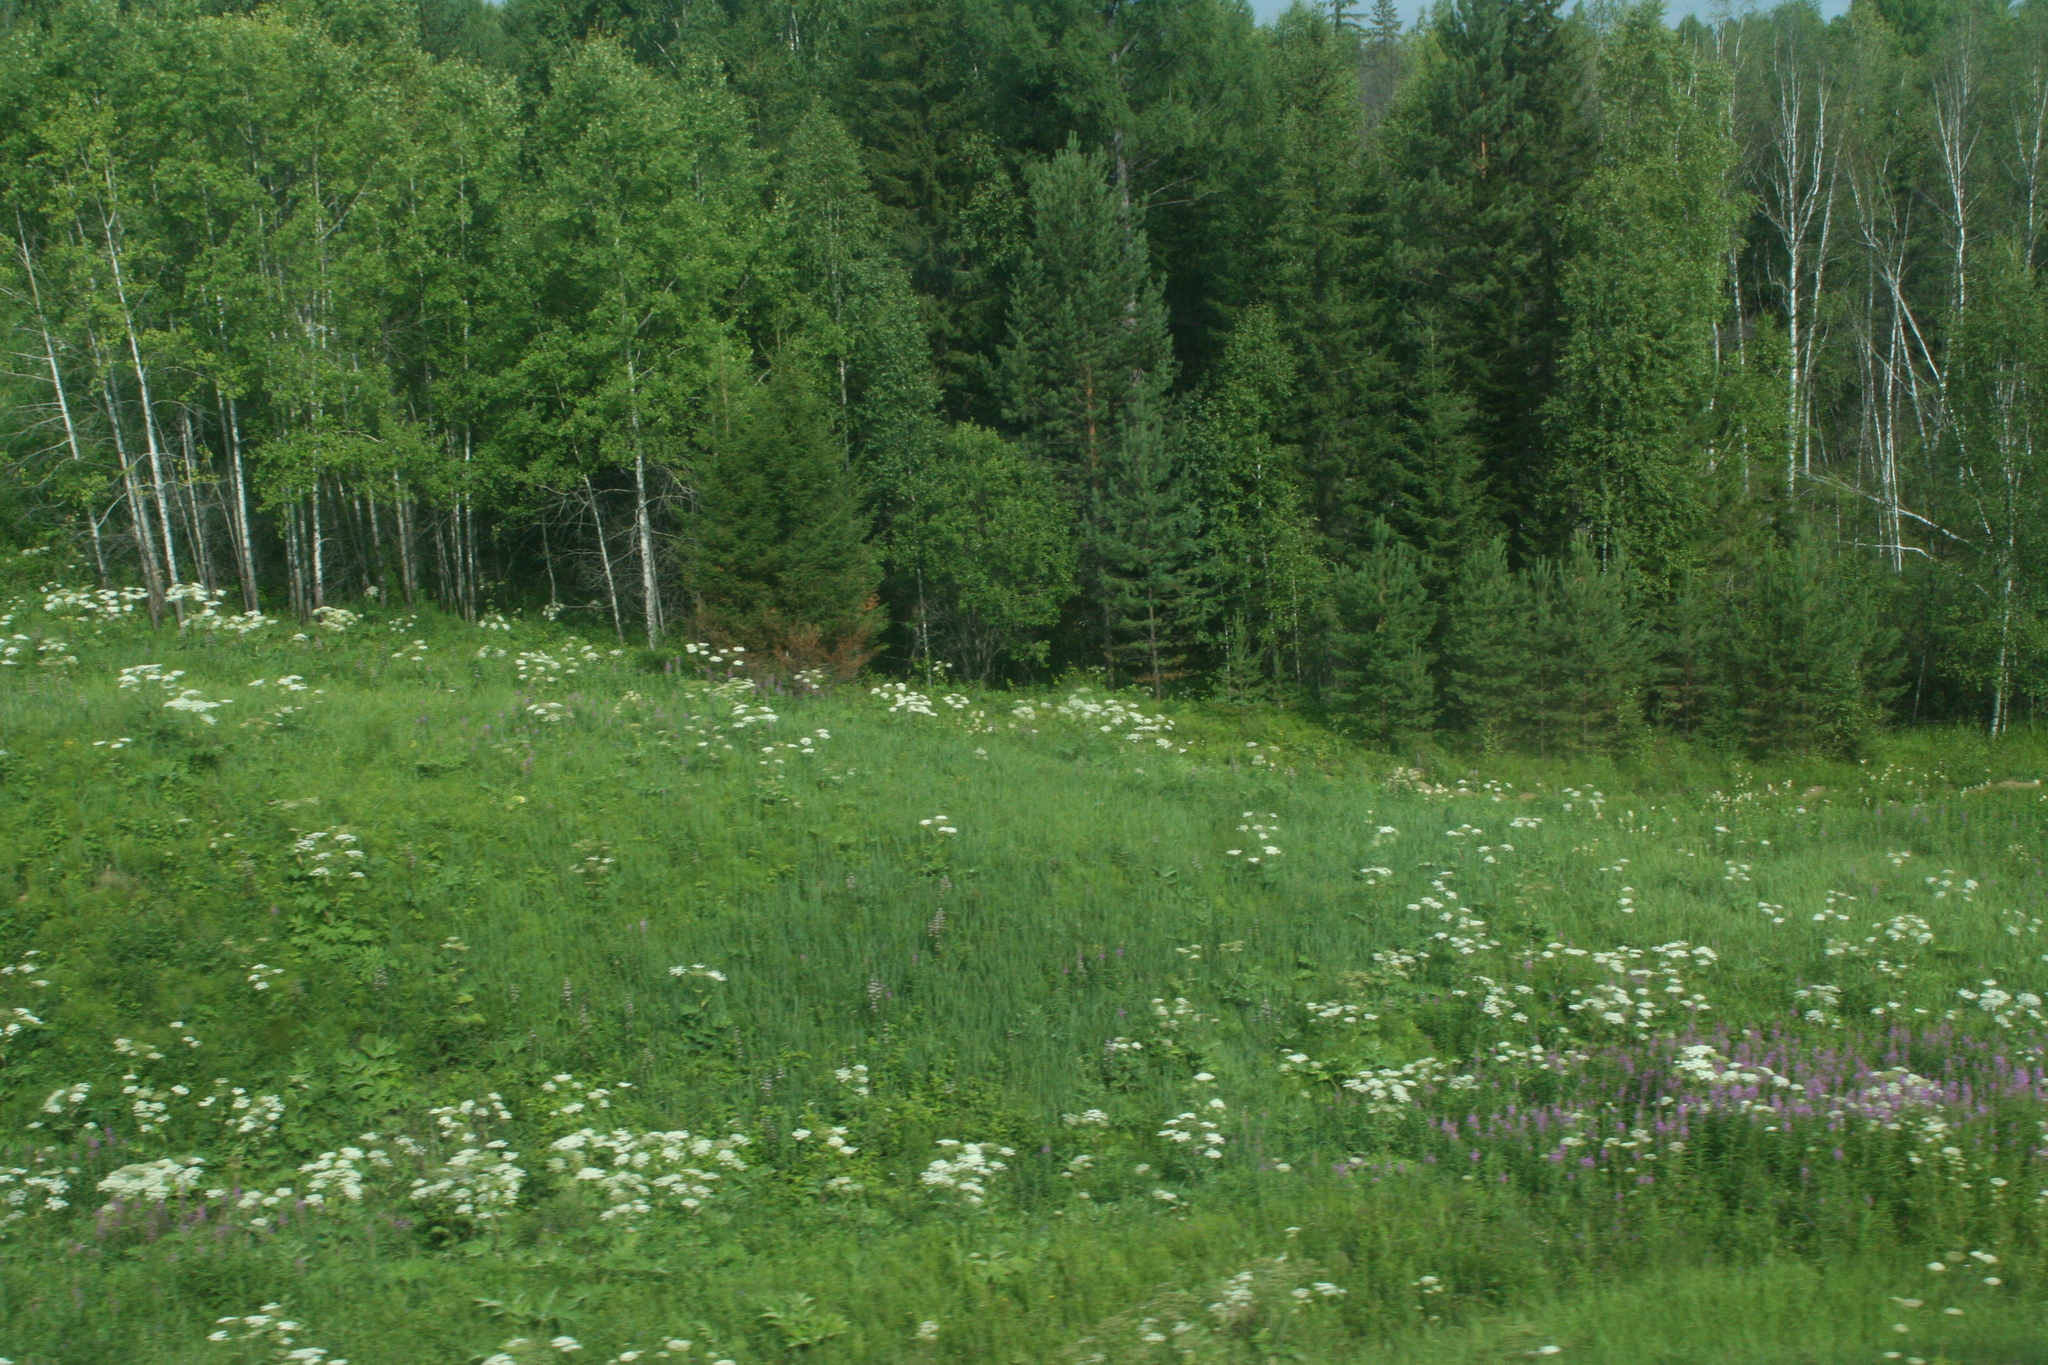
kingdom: Plantae
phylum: Tracheophyta
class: Magnoliopsida
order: Apiales
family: Apiaceae
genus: Heracleum
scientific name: Heracleum dissectum
